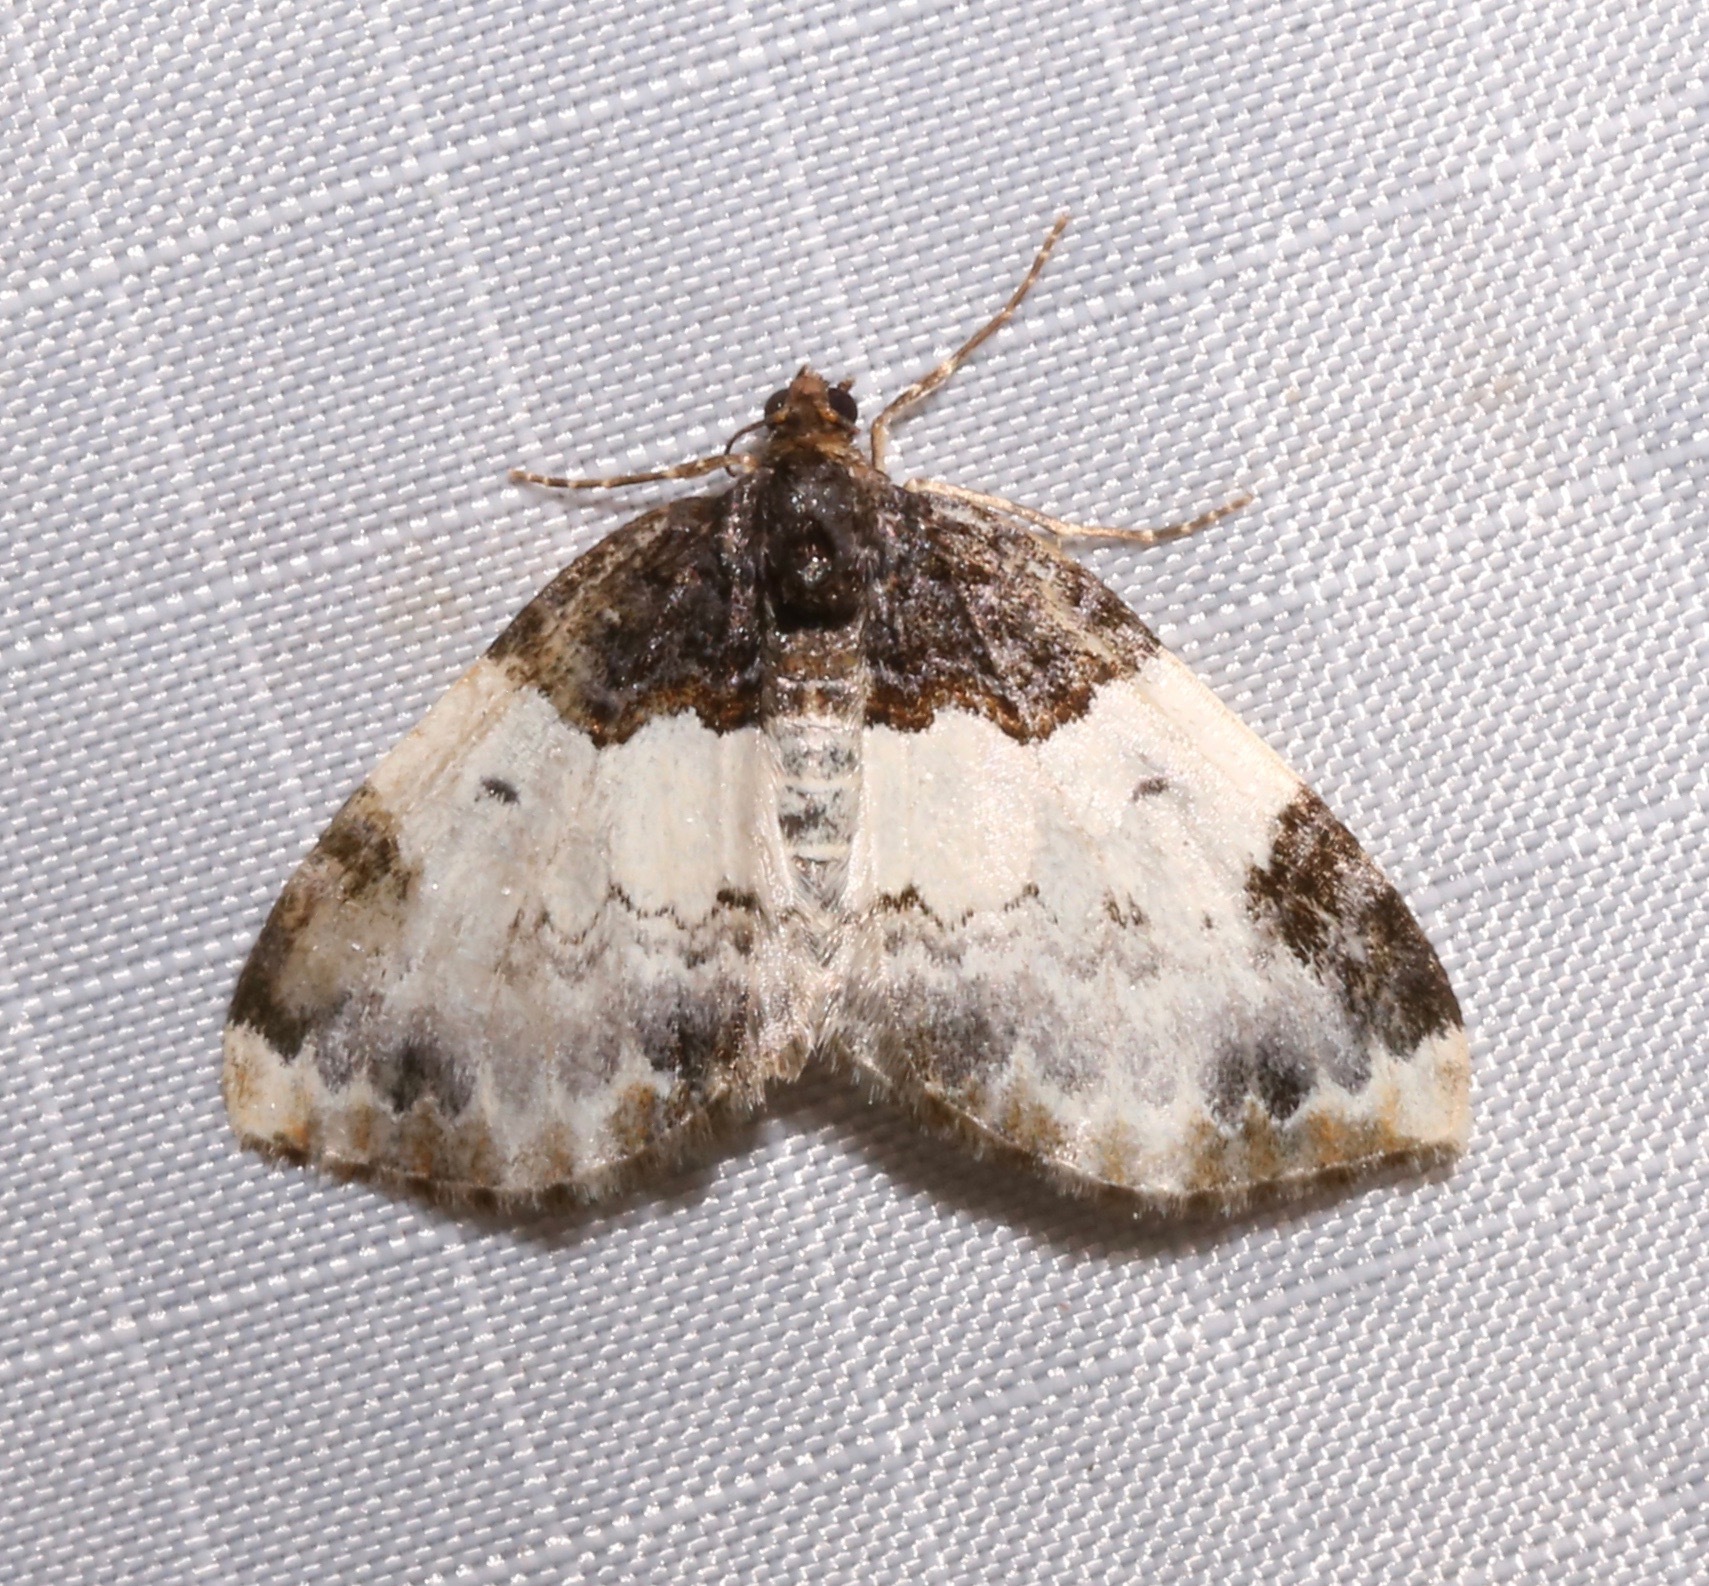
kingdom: Animalia
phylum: Arthropoda
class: Insecta
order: Lepidoptera
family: Geometridae
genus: Mesoleuca
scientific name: Mesoleuca ruficillata
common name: White-ribboned carpet moth
